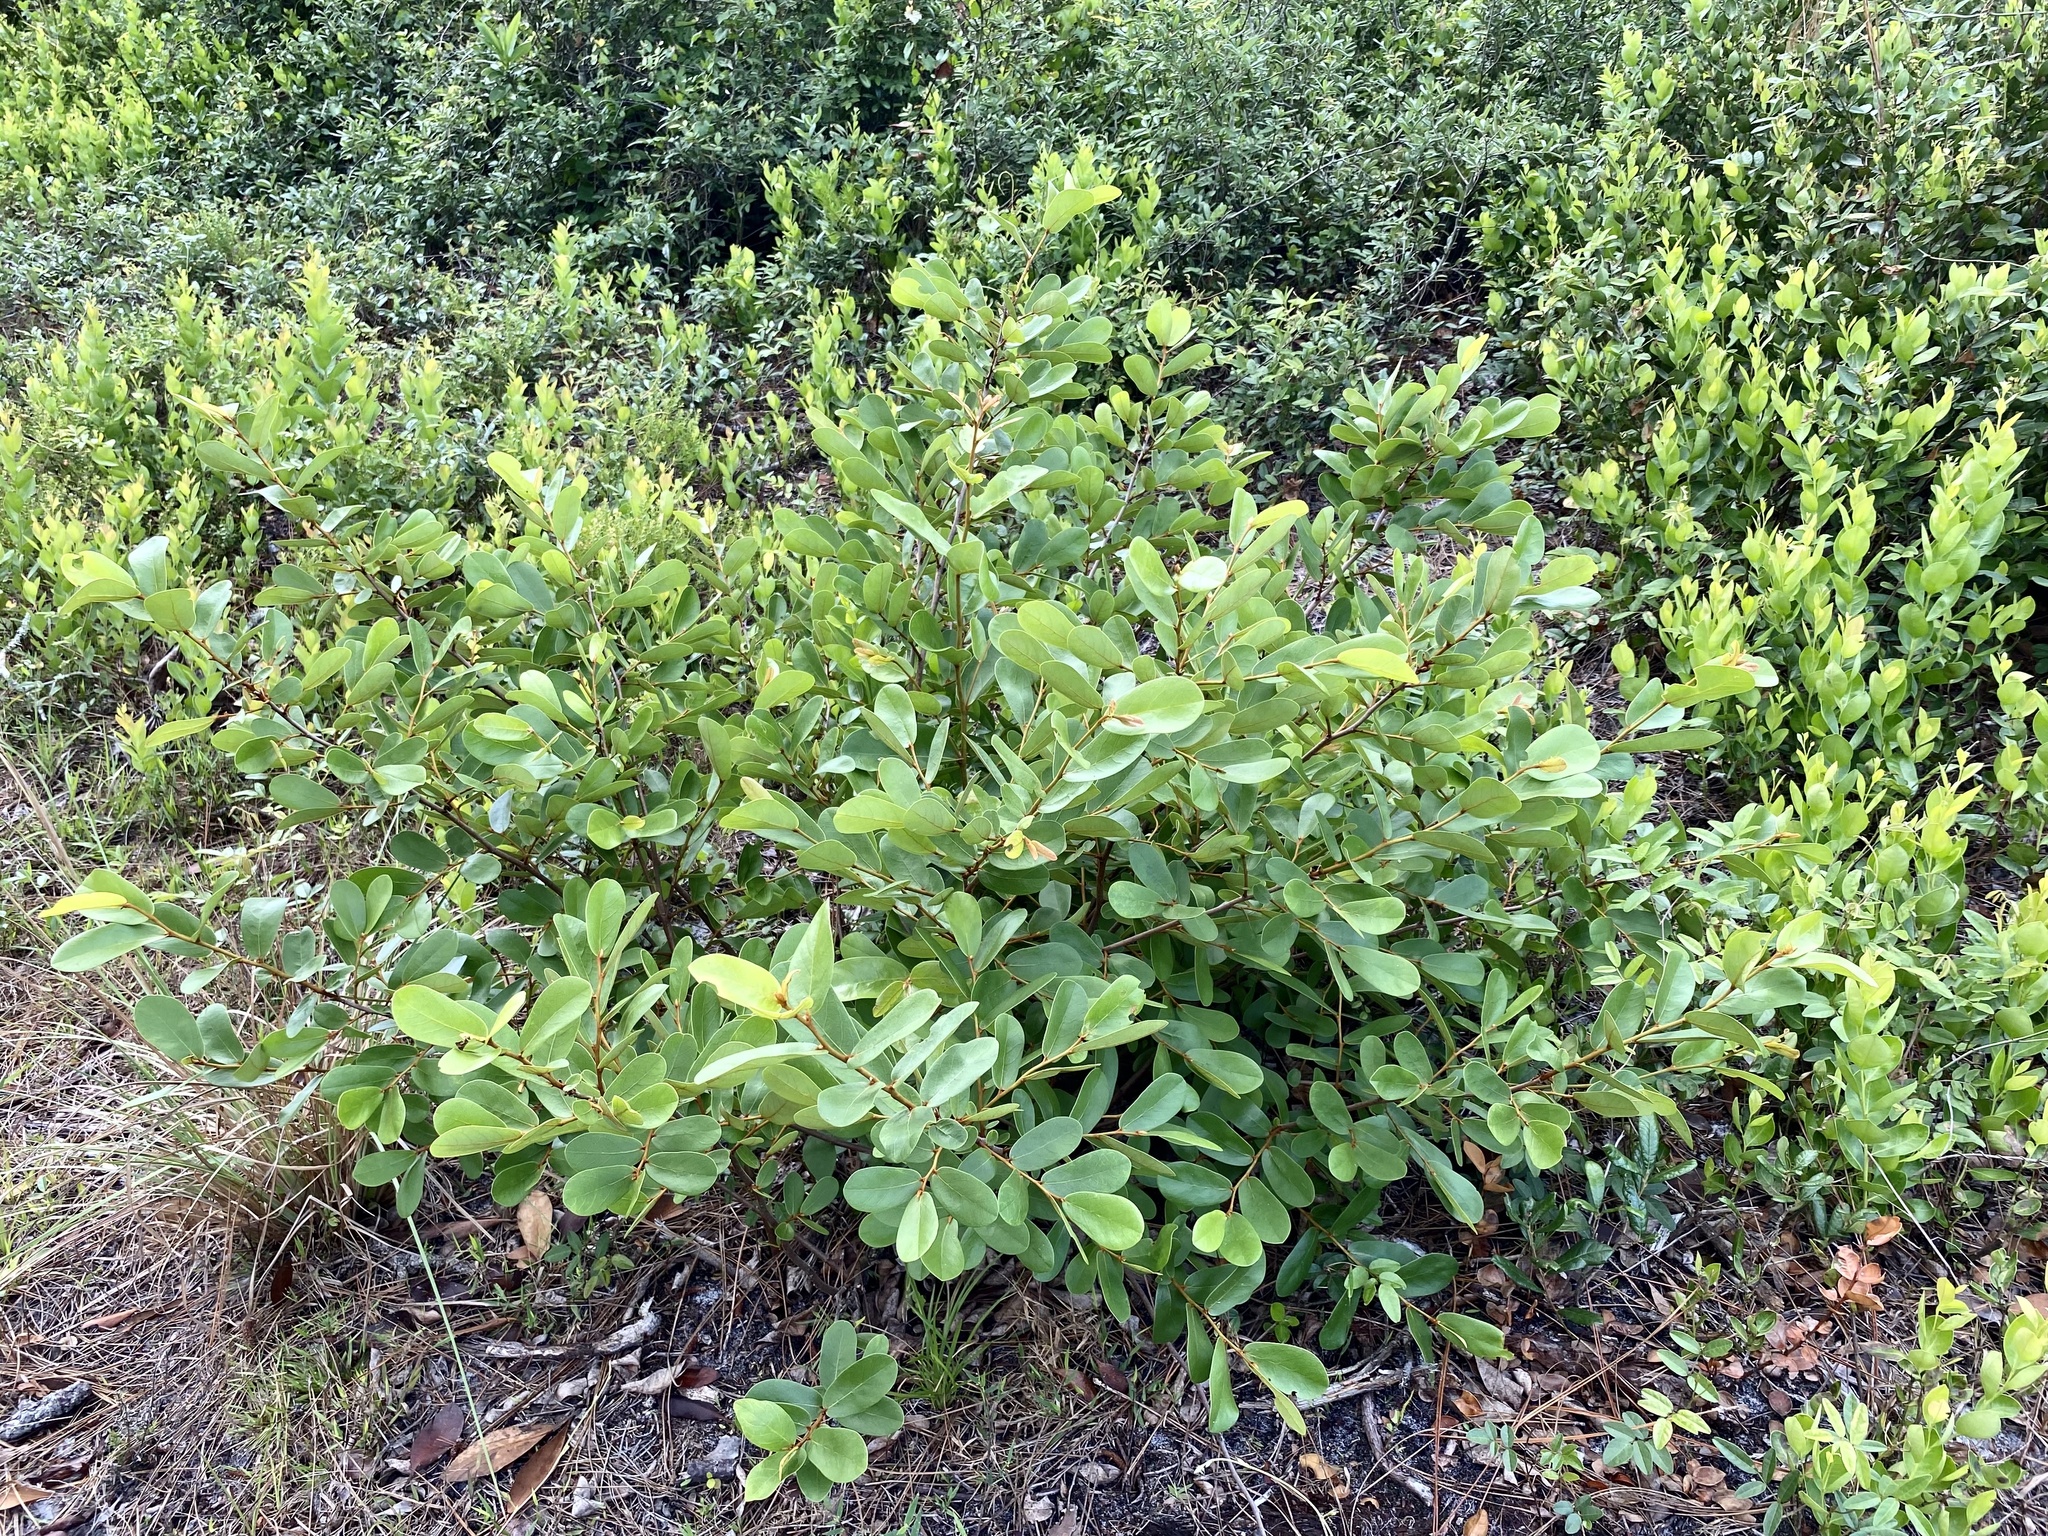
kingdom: Plantae
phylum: Tracheophyta
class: Magnoliopsida
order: Magnoliales
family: Annonaceae
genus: Asimina
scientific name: Asimina reticulata
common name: Flag pawpaw
